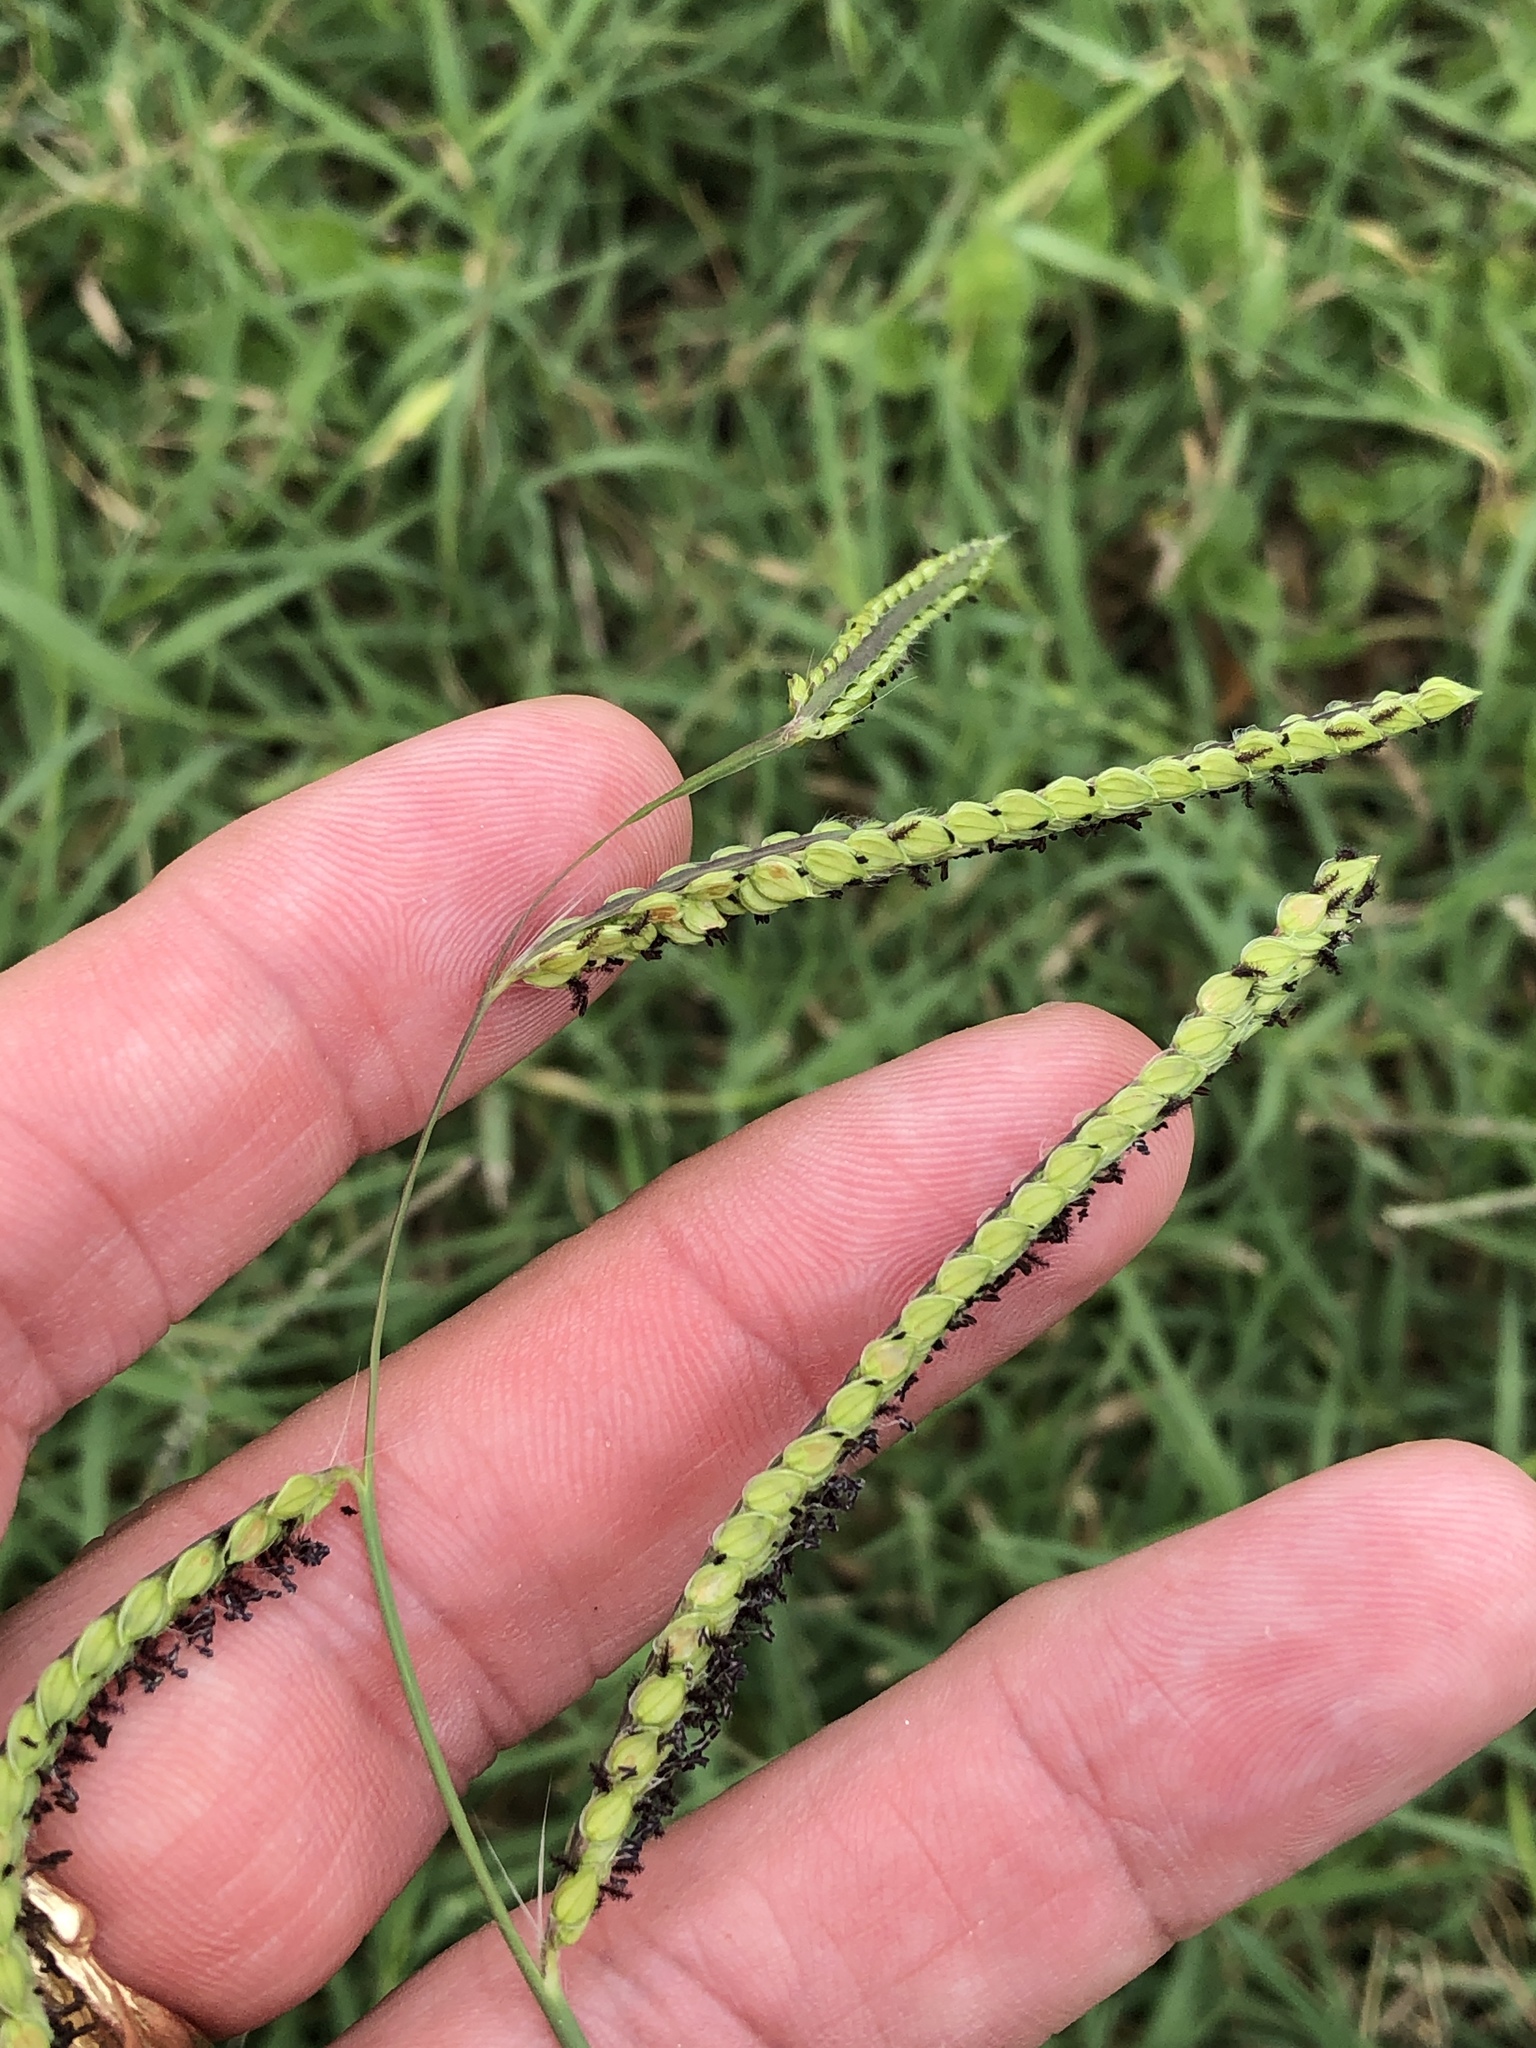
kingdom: Plantae
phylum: Tracheophyta
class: Liliopsida
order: Poales
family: Poaceae
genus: Paspalum
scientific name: Paspalum dilatatum
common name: Dallisgrass
